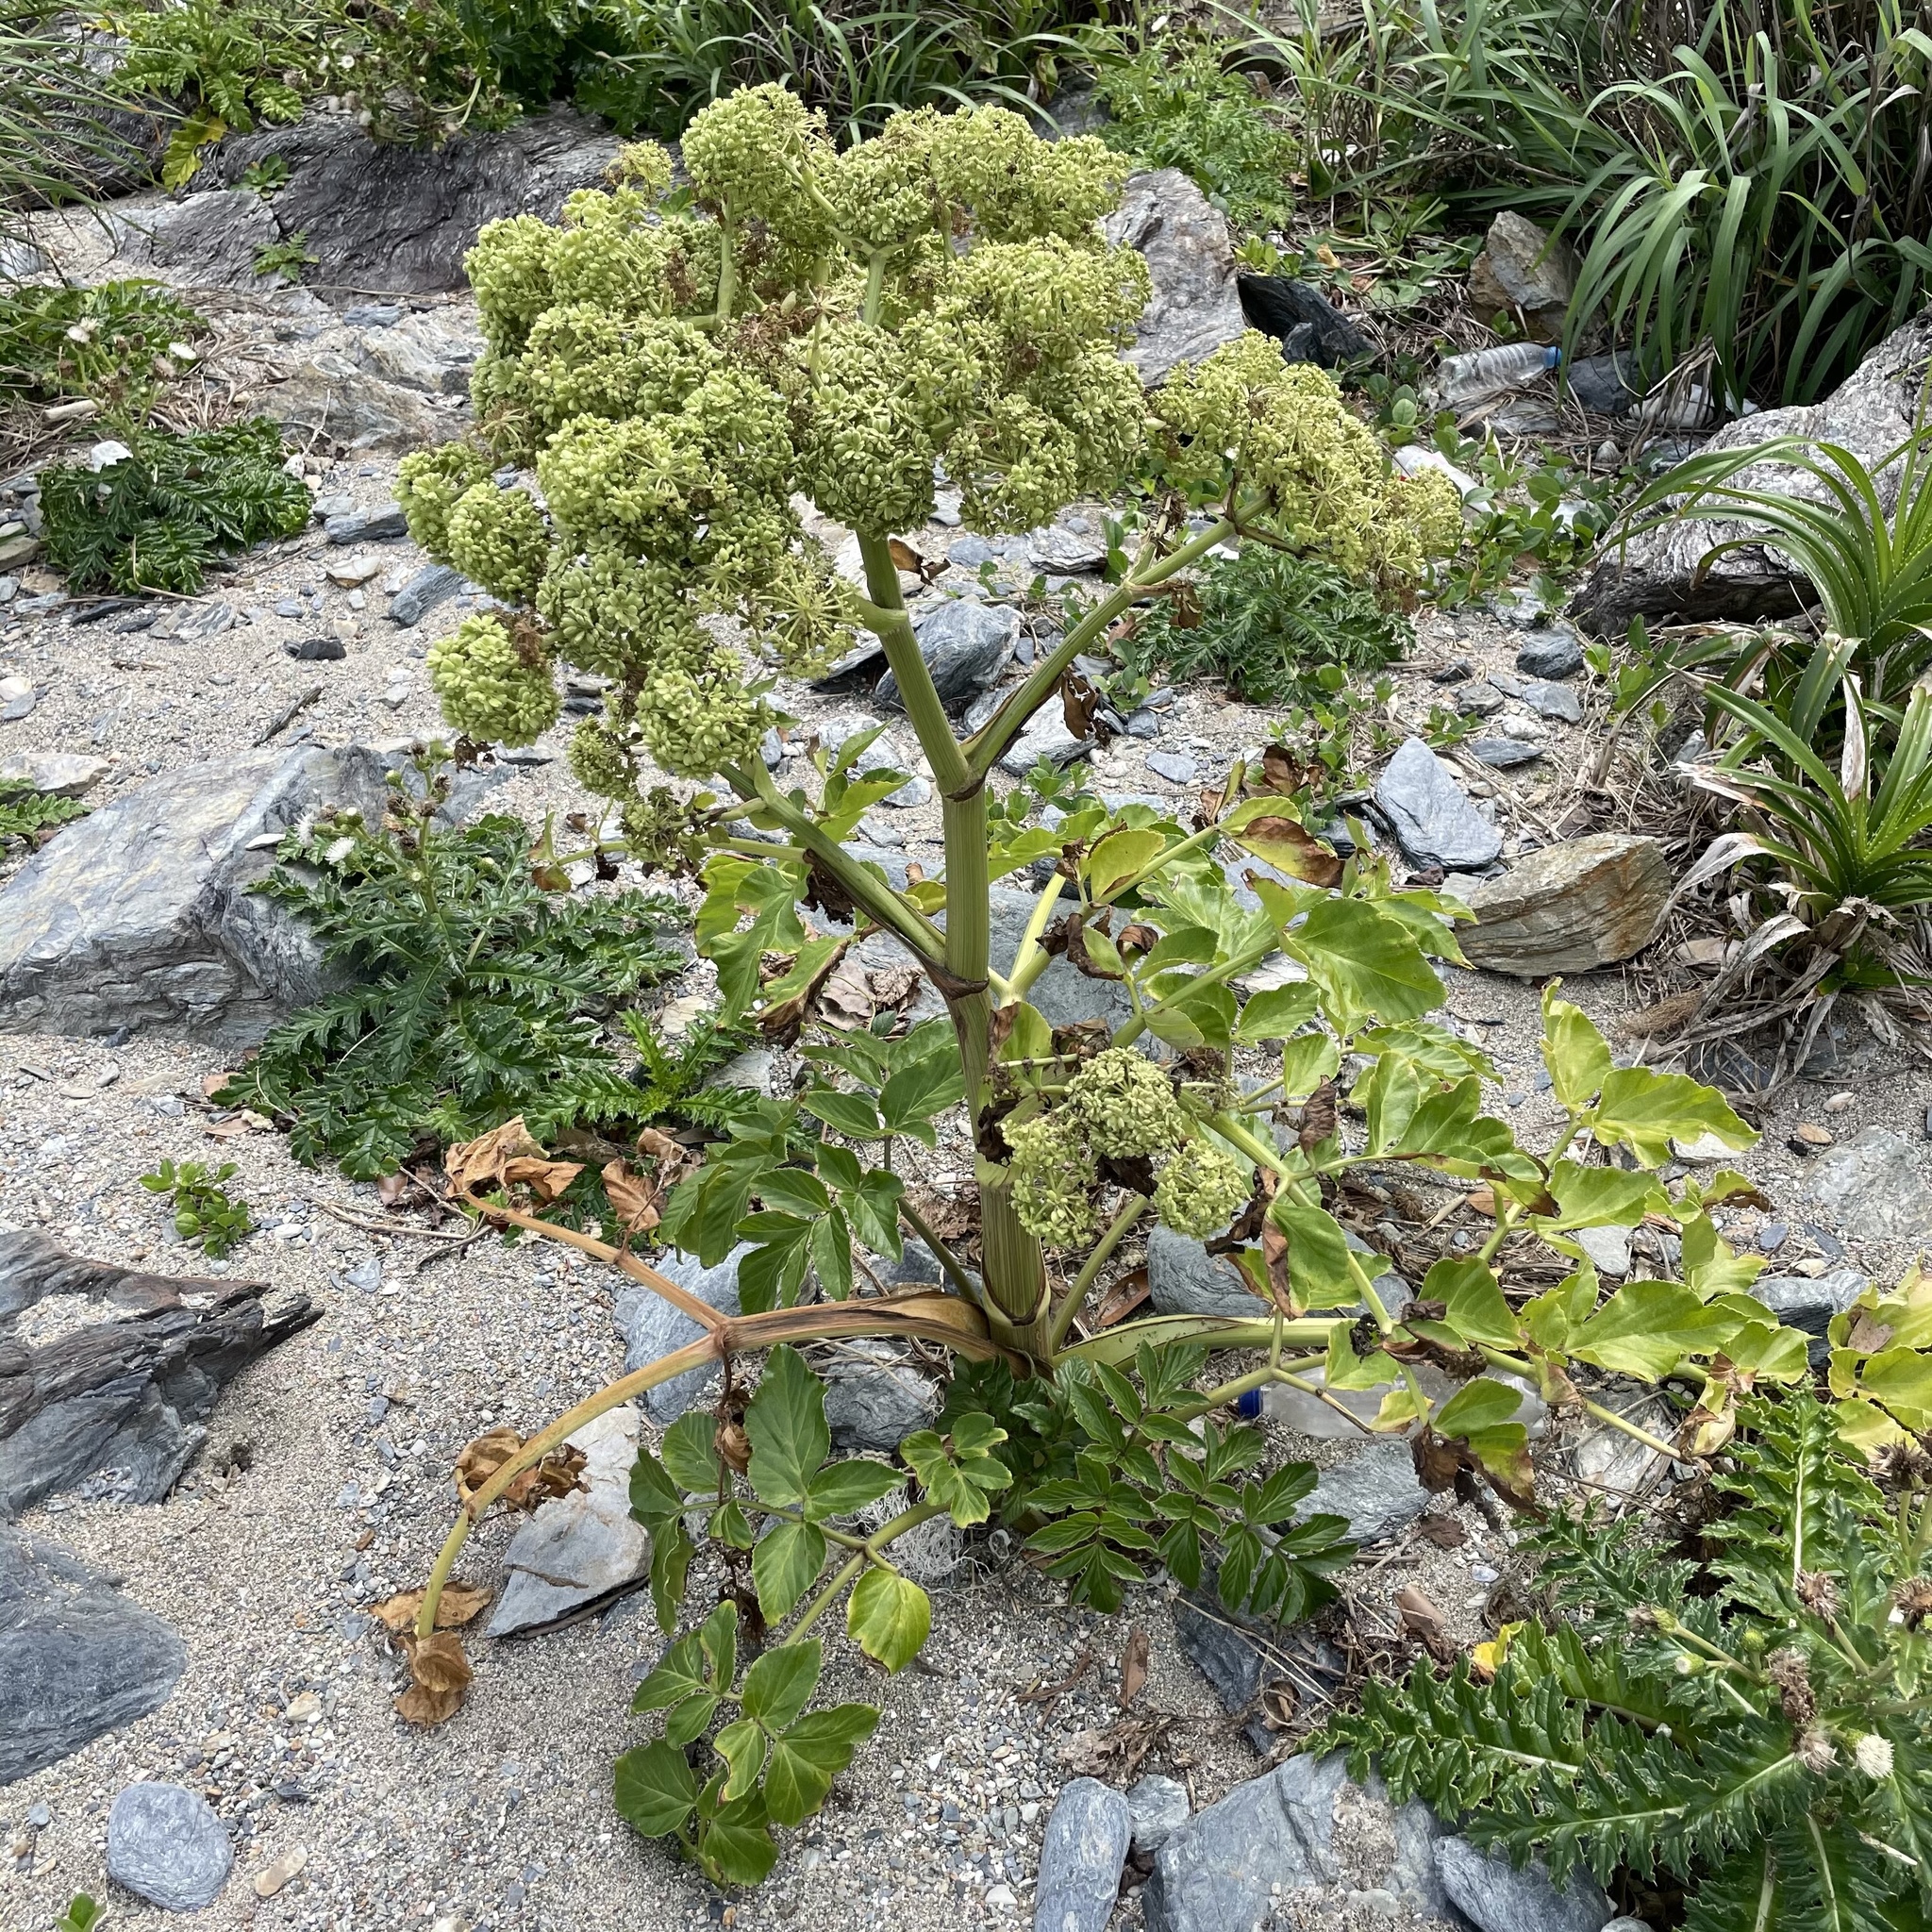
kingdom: Plantae
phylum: Tracheophyta
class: Magnoliopsida
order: Apiales
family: Apiaceae
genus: Angelica
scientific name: Angelica japonica
